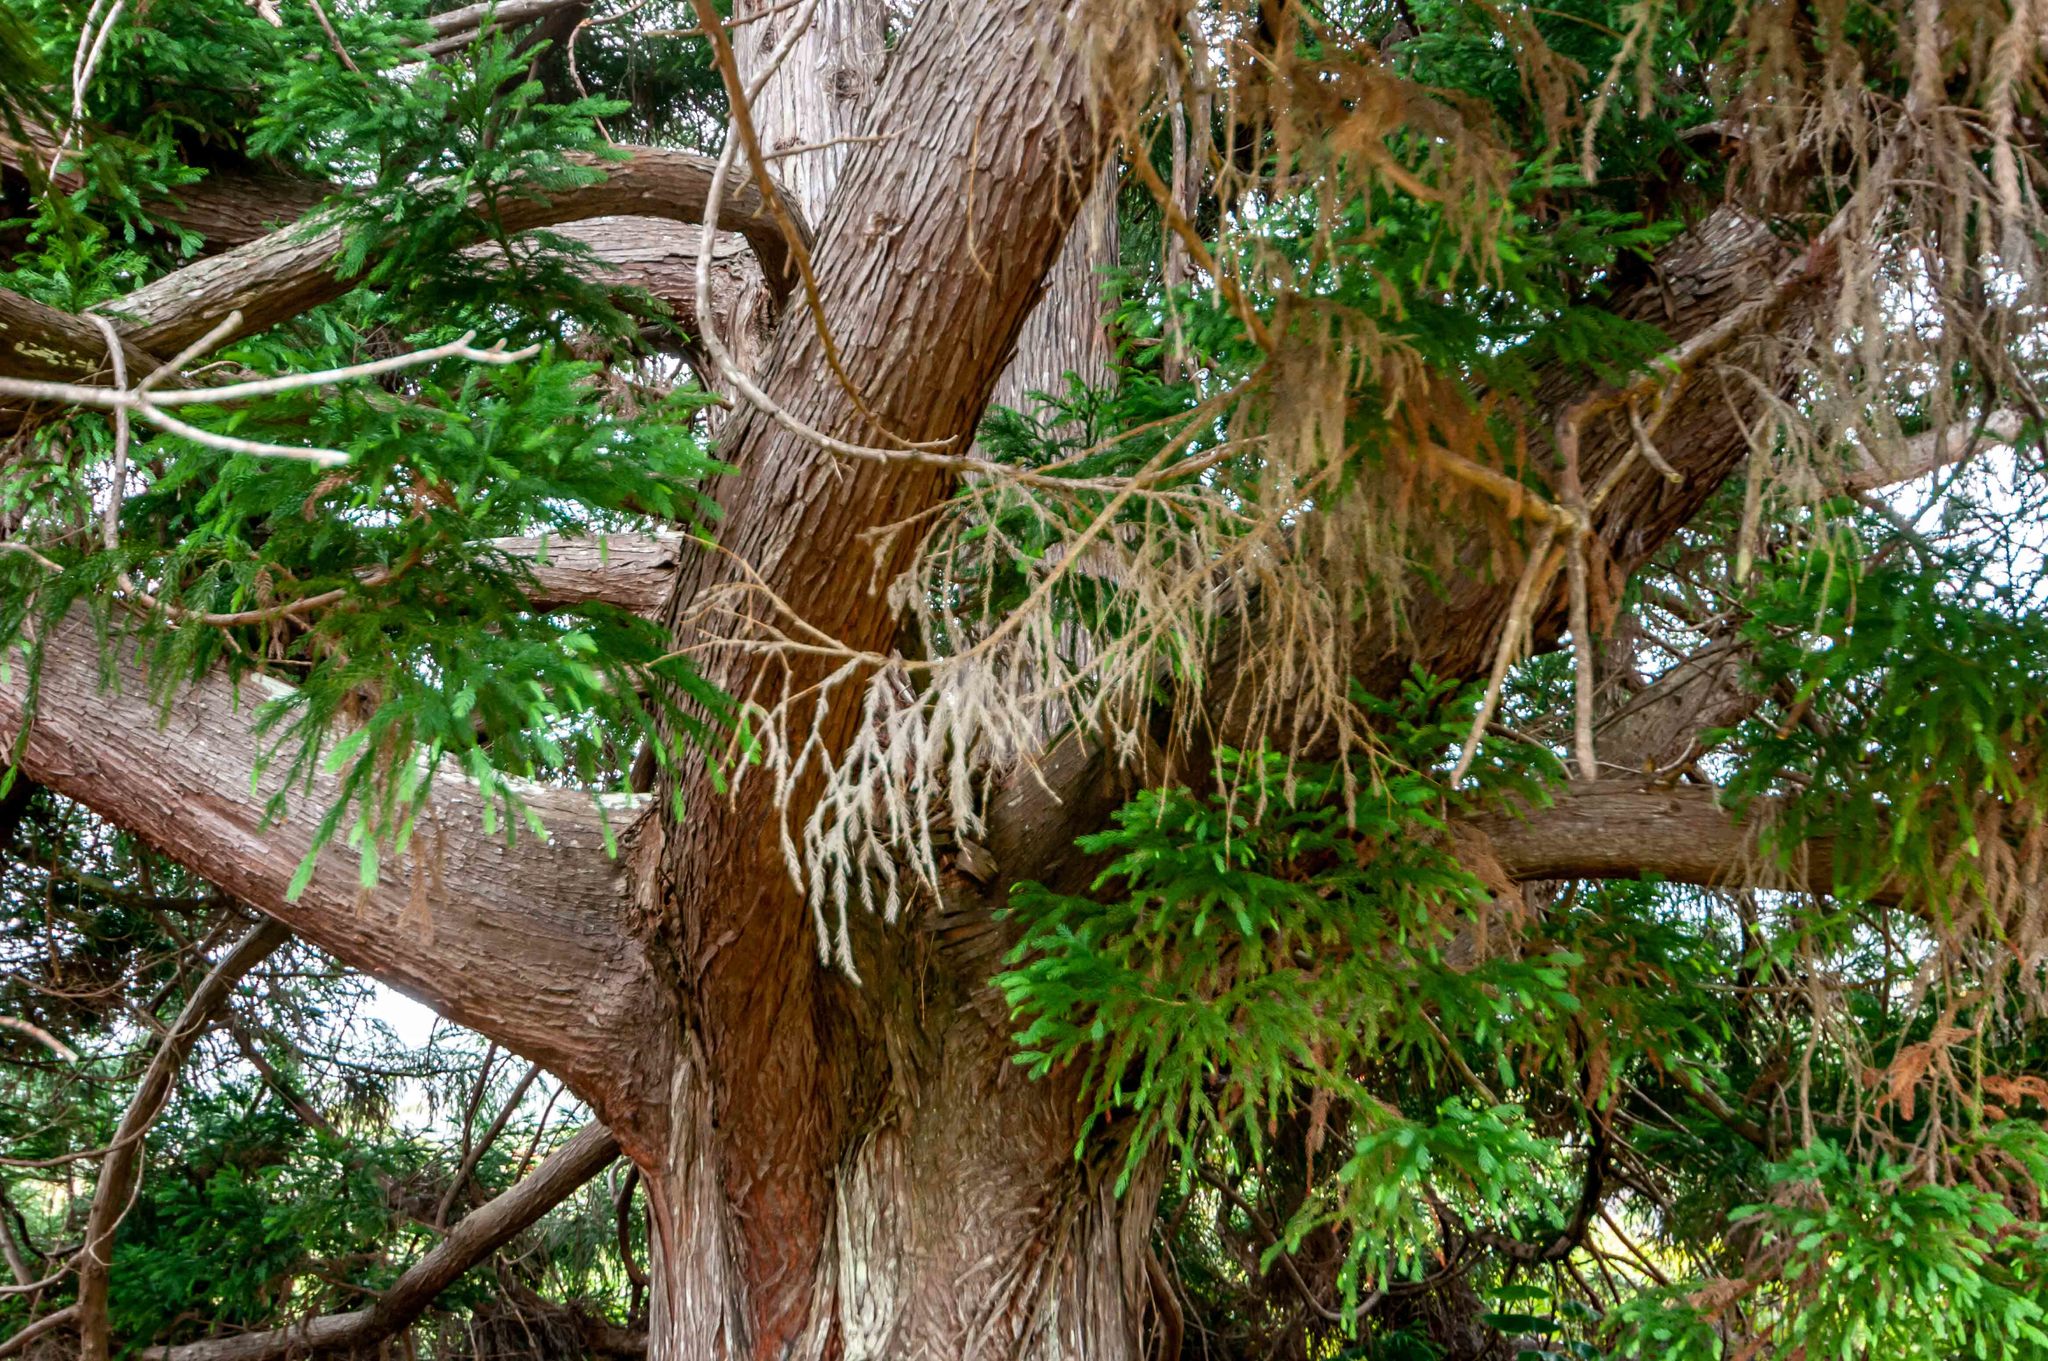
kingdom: Plantae
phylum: Tracheophyta
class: Pinopsida
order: Pinales
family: Cupressaceae
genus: Cryptomeria
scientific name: Cryptomeria japonica
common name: Japanese cedar
